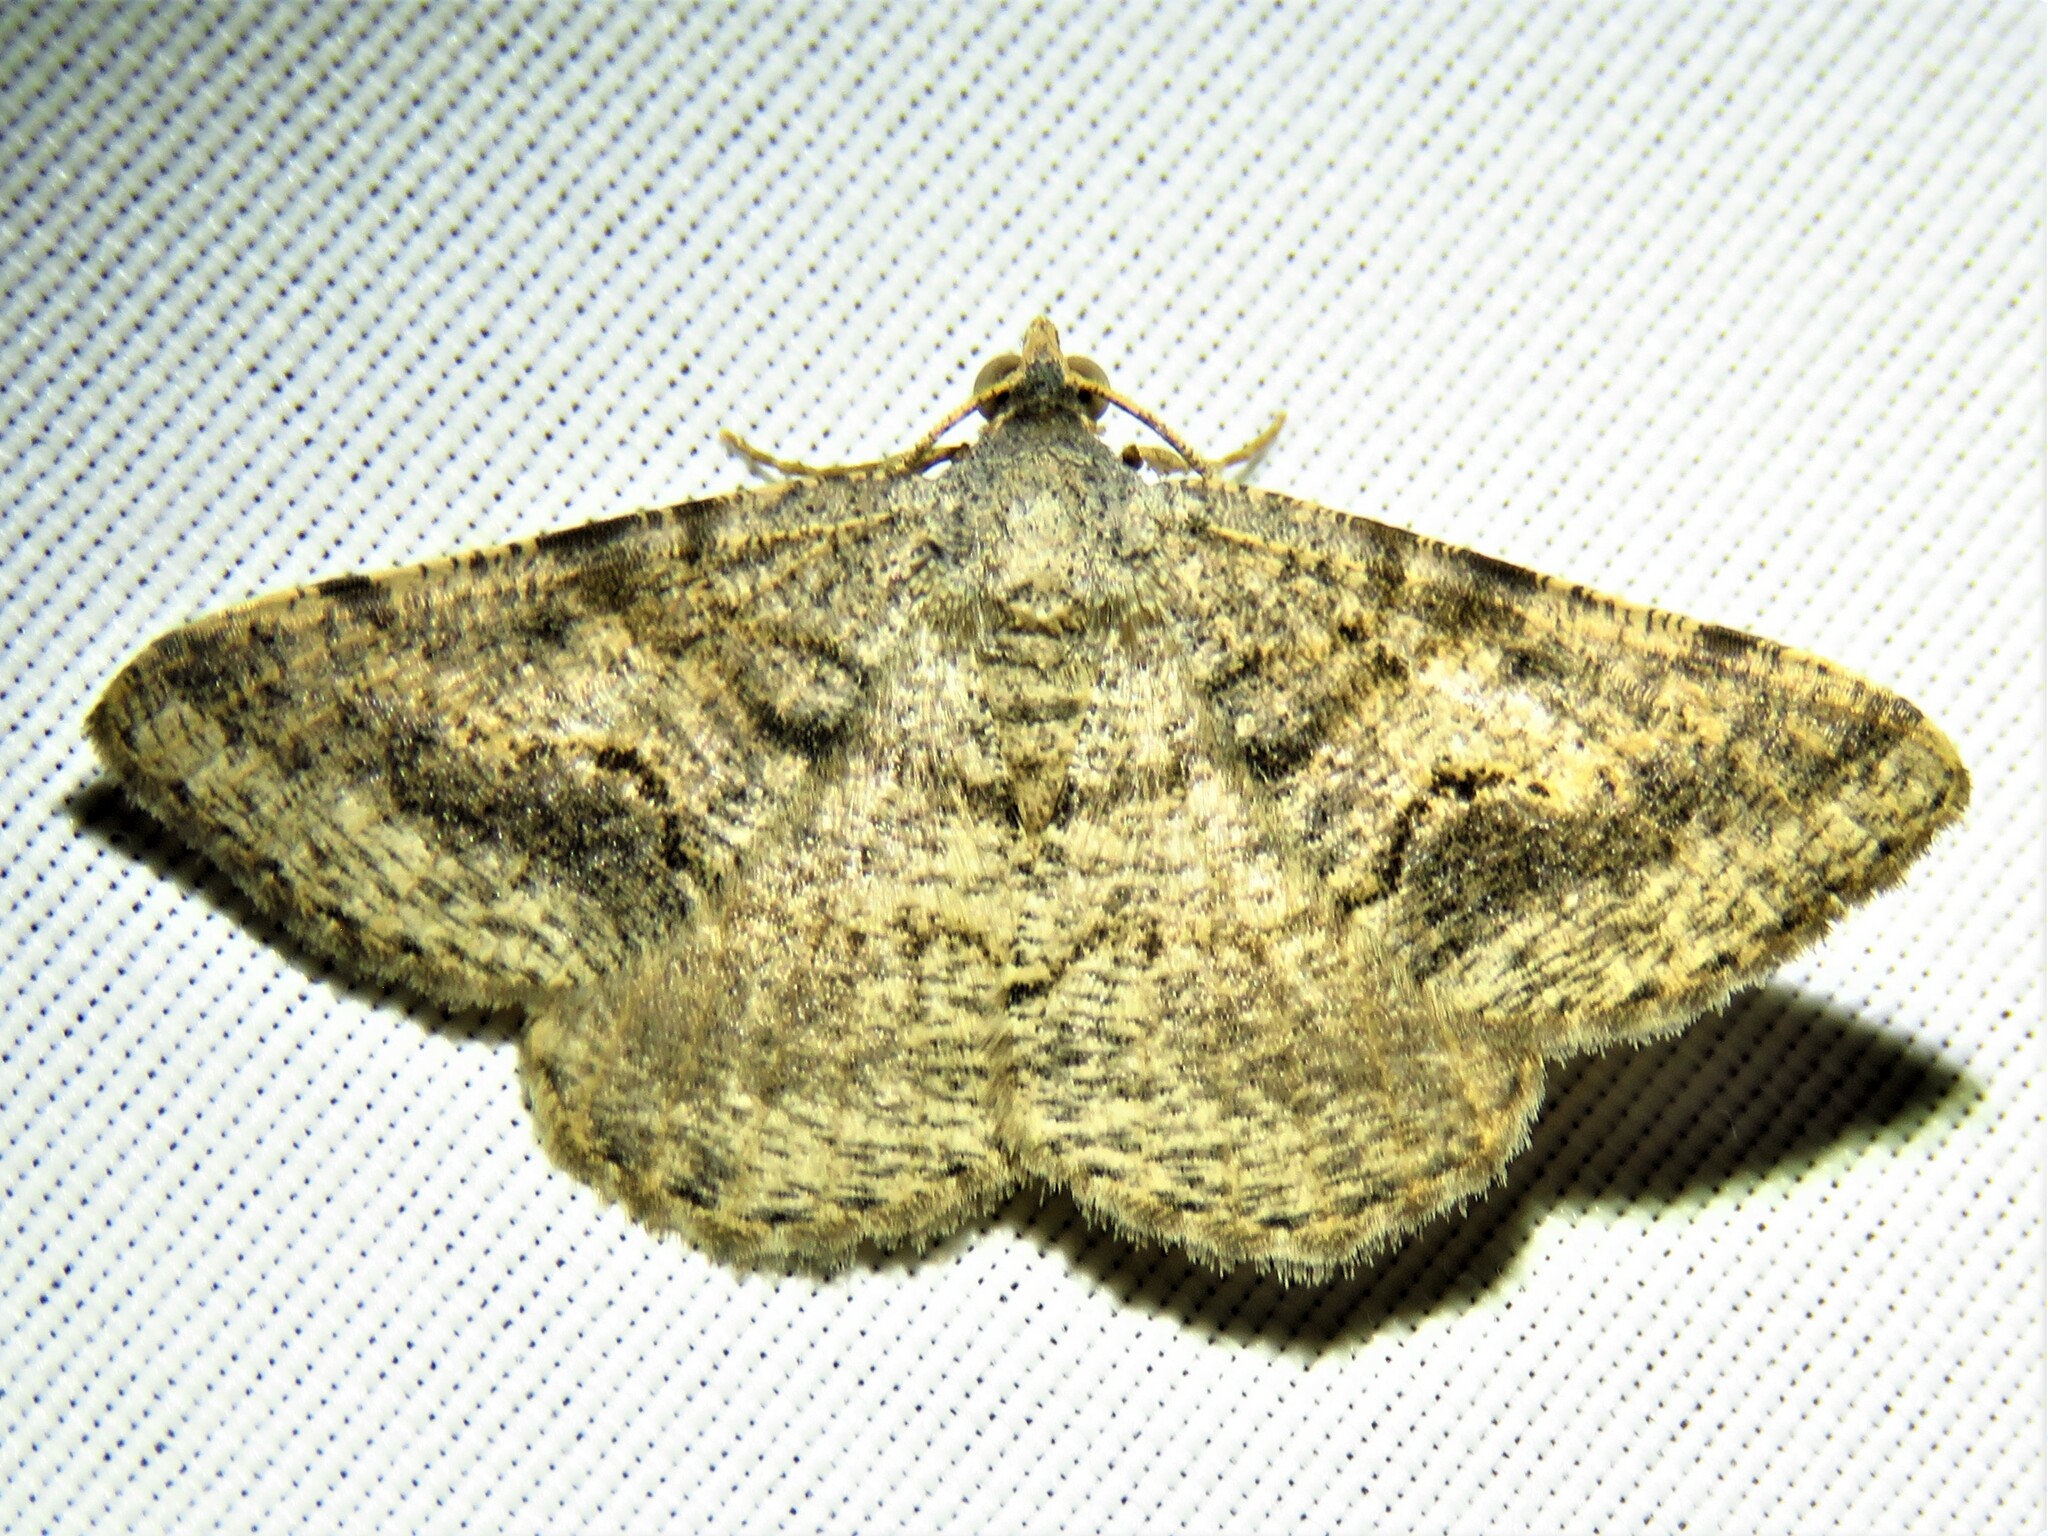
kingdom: Animalia
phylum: Arthropoda
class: Insecta
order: Lepidoptera
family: Geometridae
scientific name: Geometridae
